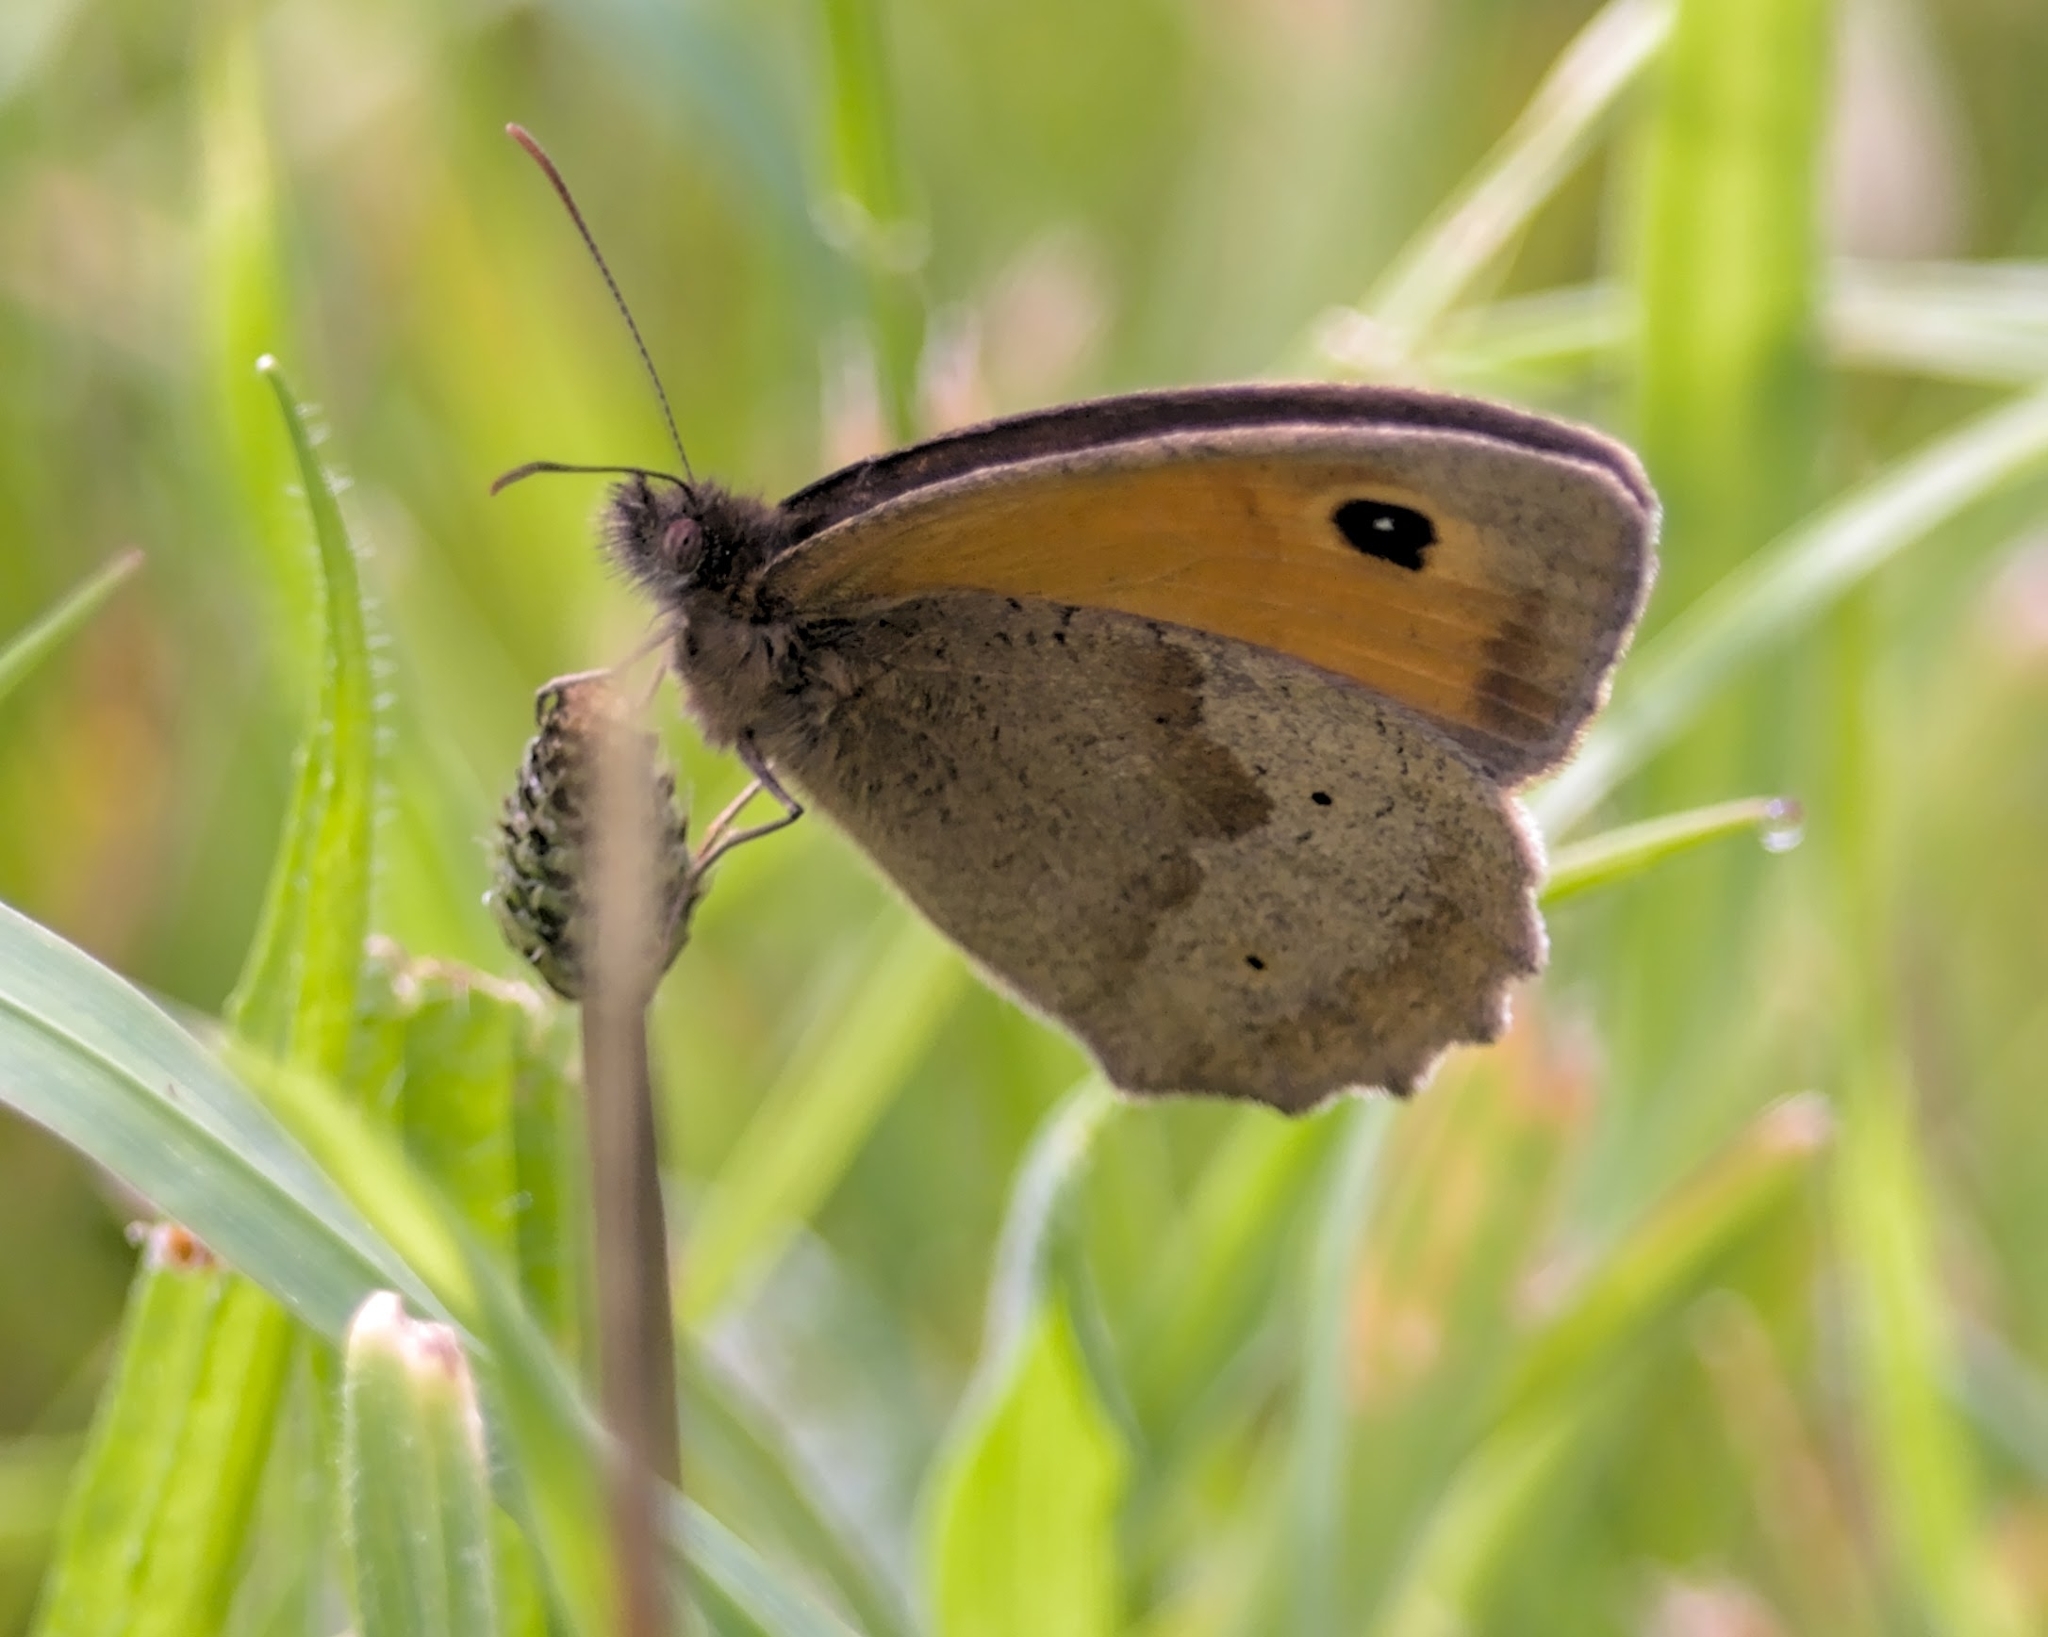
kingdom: Animalia
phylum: Arthropoda
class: Insecta
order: Lepidoptera
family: Nymphalidae
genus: Maniola
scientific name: Maniola jurtina
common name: Meadow brown
